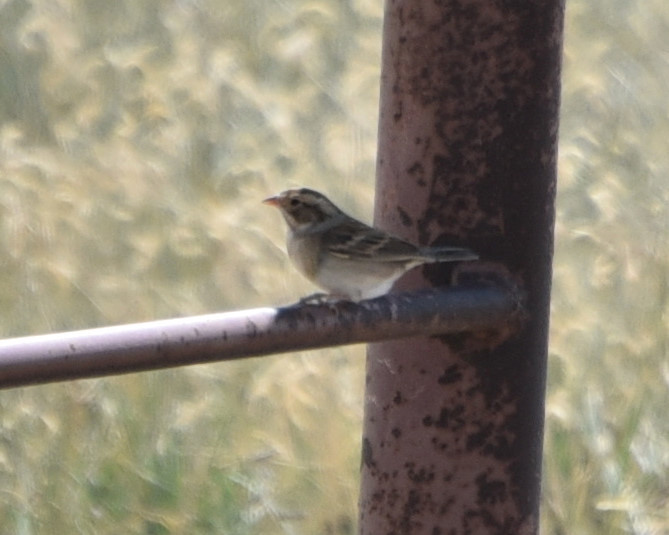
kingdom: Animalia
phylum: Chordata
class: Aves
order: Passeriformes
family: Passerellidae
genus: Spizella
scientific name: Spizella pallida
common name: Clay-colored sparrow
